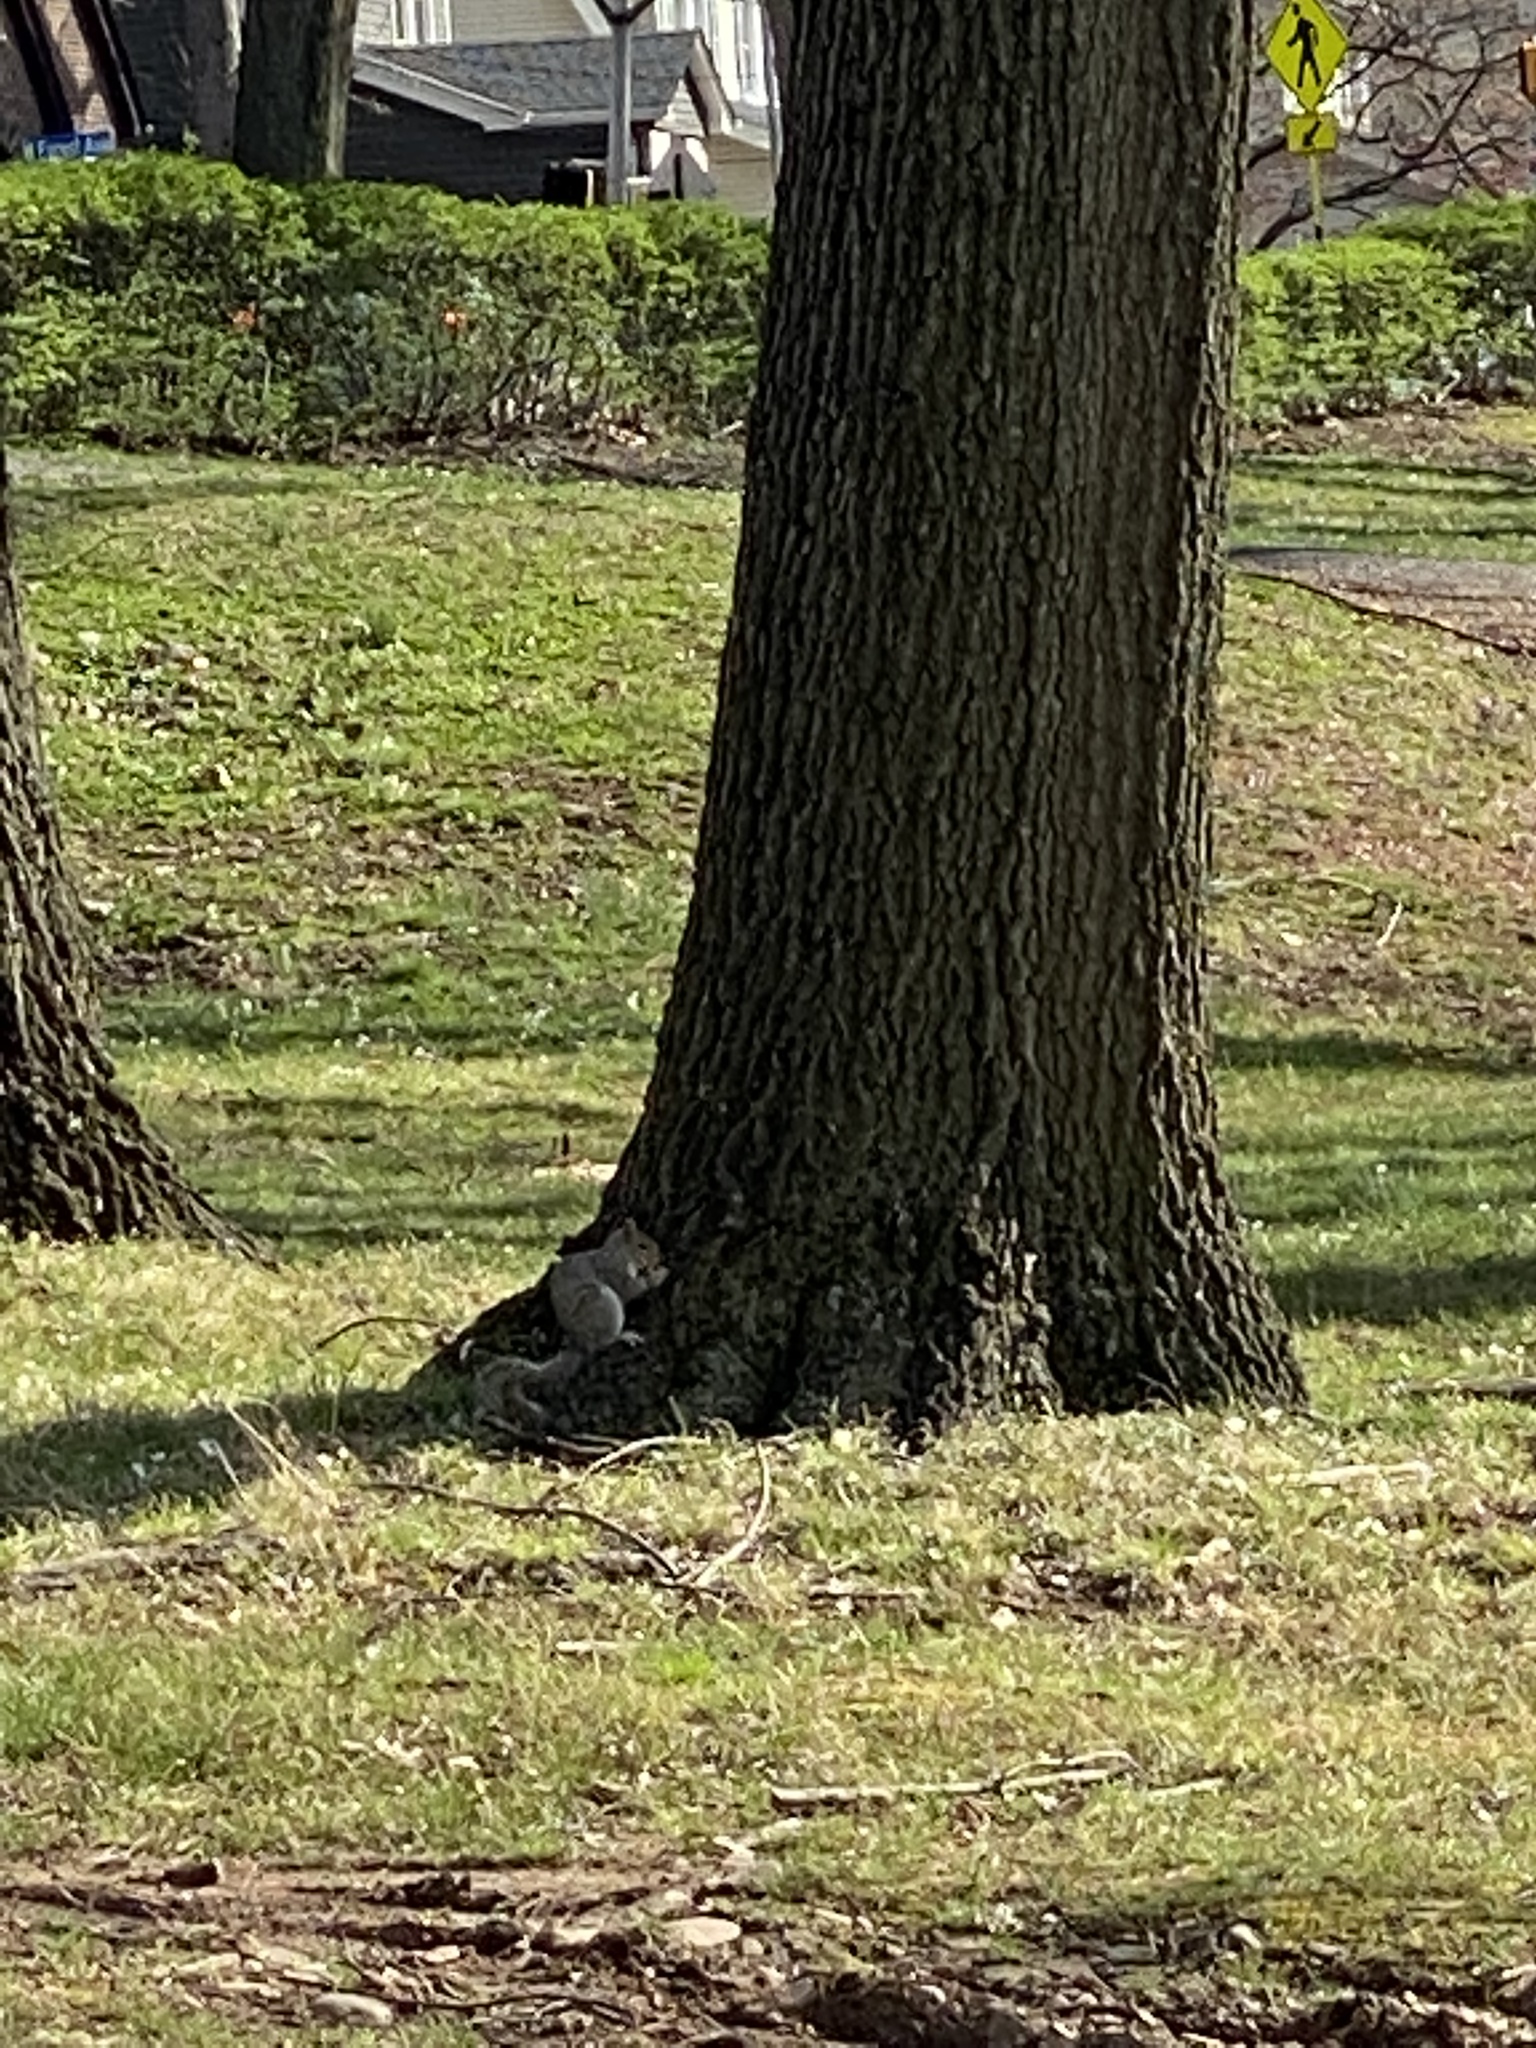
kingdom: Animalia
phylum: Chordata
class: Mammalia
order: Rodentia
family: Sciuridae
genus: Sciurus
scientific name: Sciurus carolinensis
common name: Eastern gray squirrel
